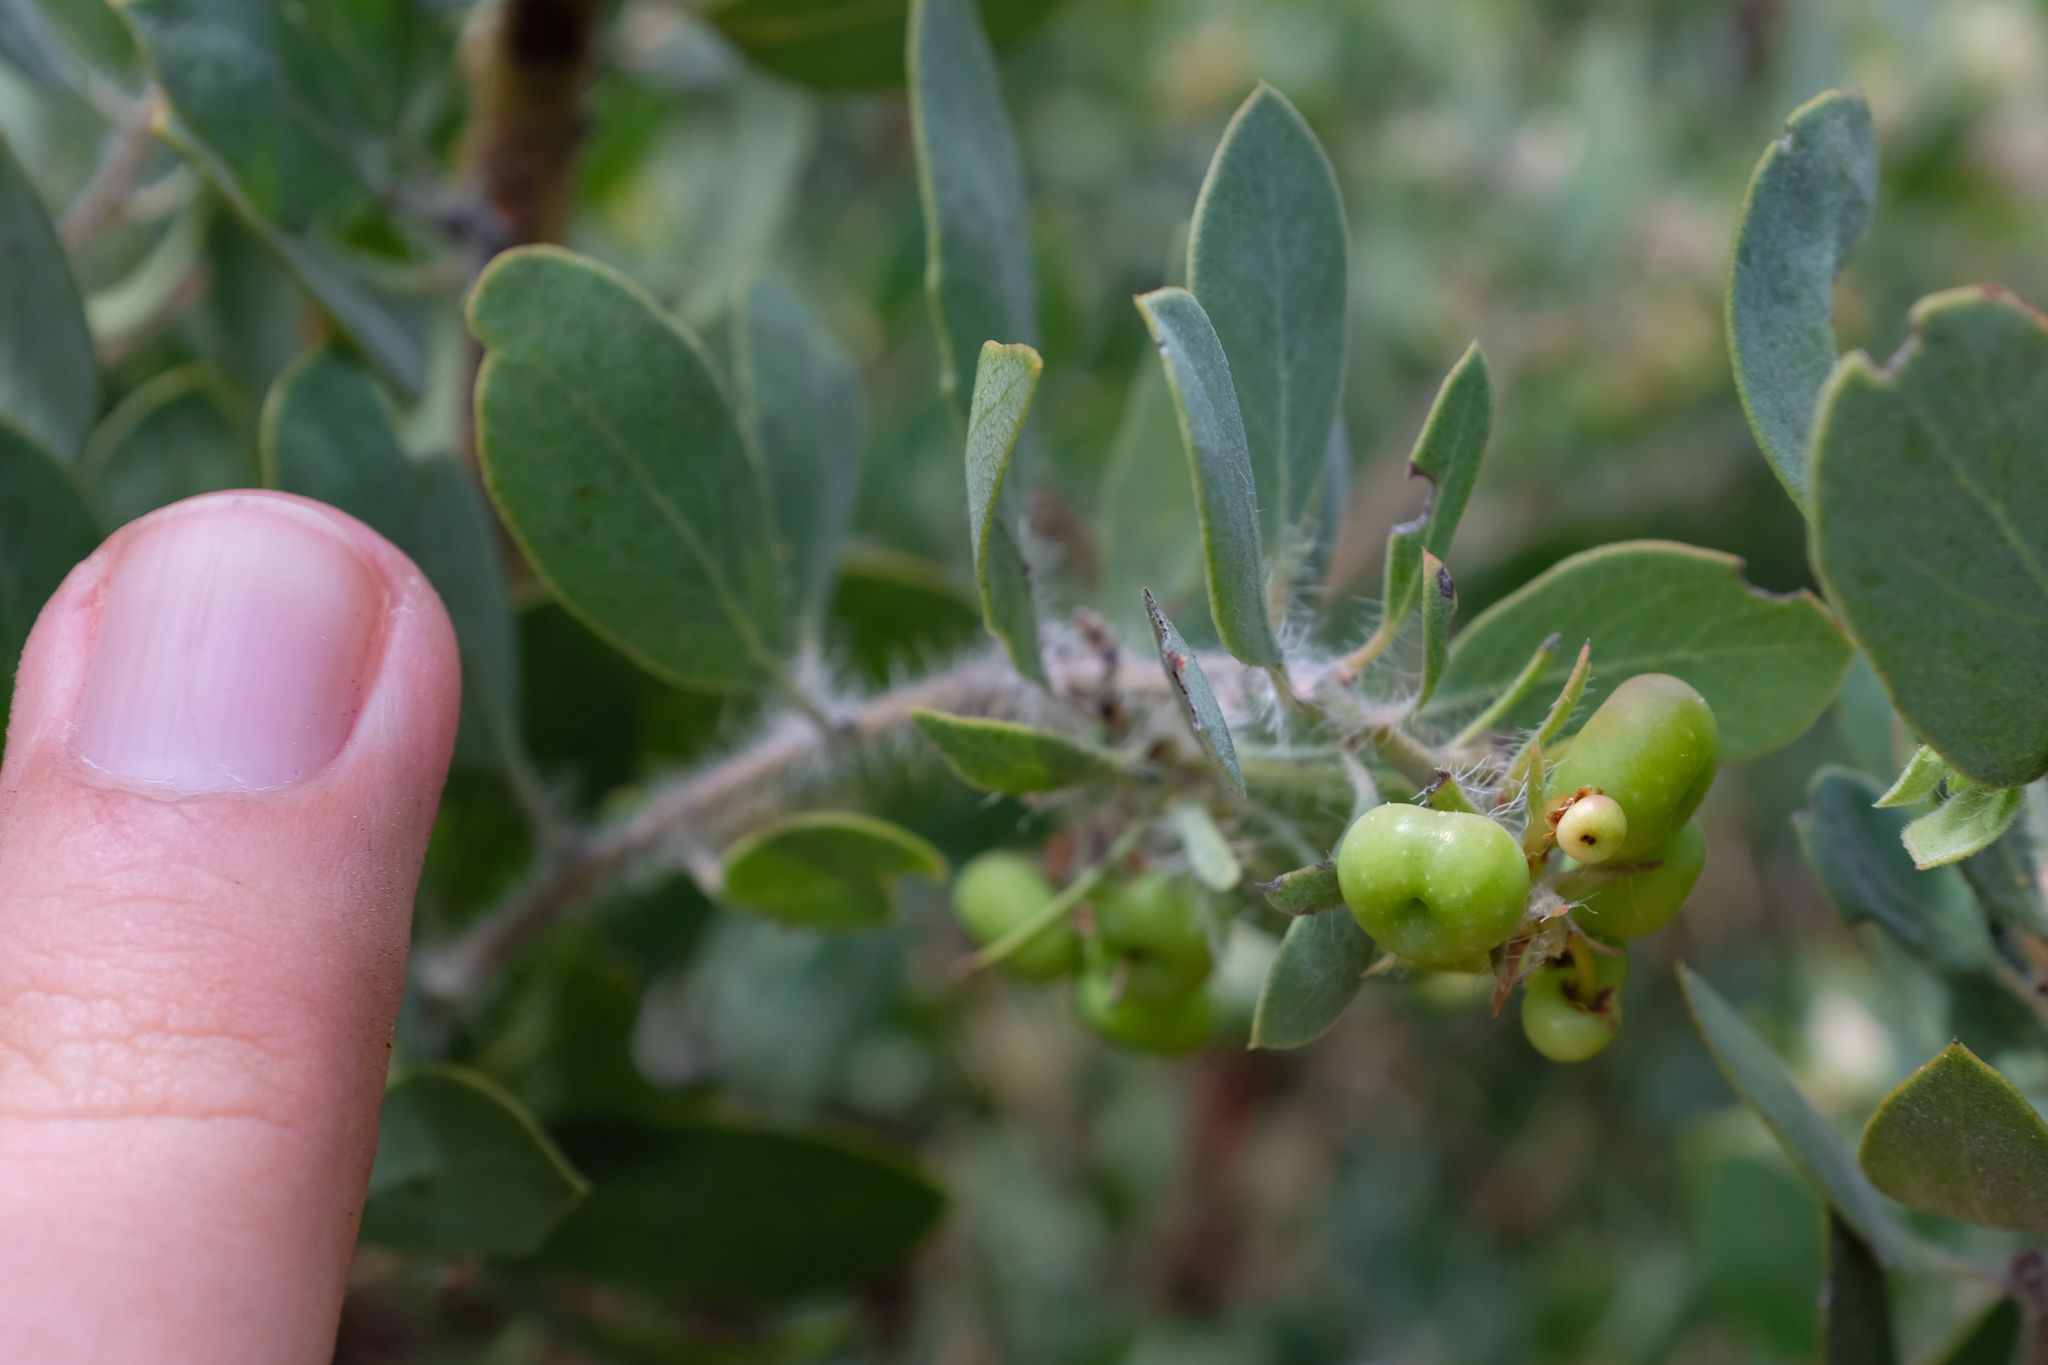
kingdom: Plantae
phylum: Tracheophyta
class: Magnoliopsida
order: Ericales
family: Ericaceae
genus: Arctostaphylos
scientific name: Arctostaphylos pilosula
